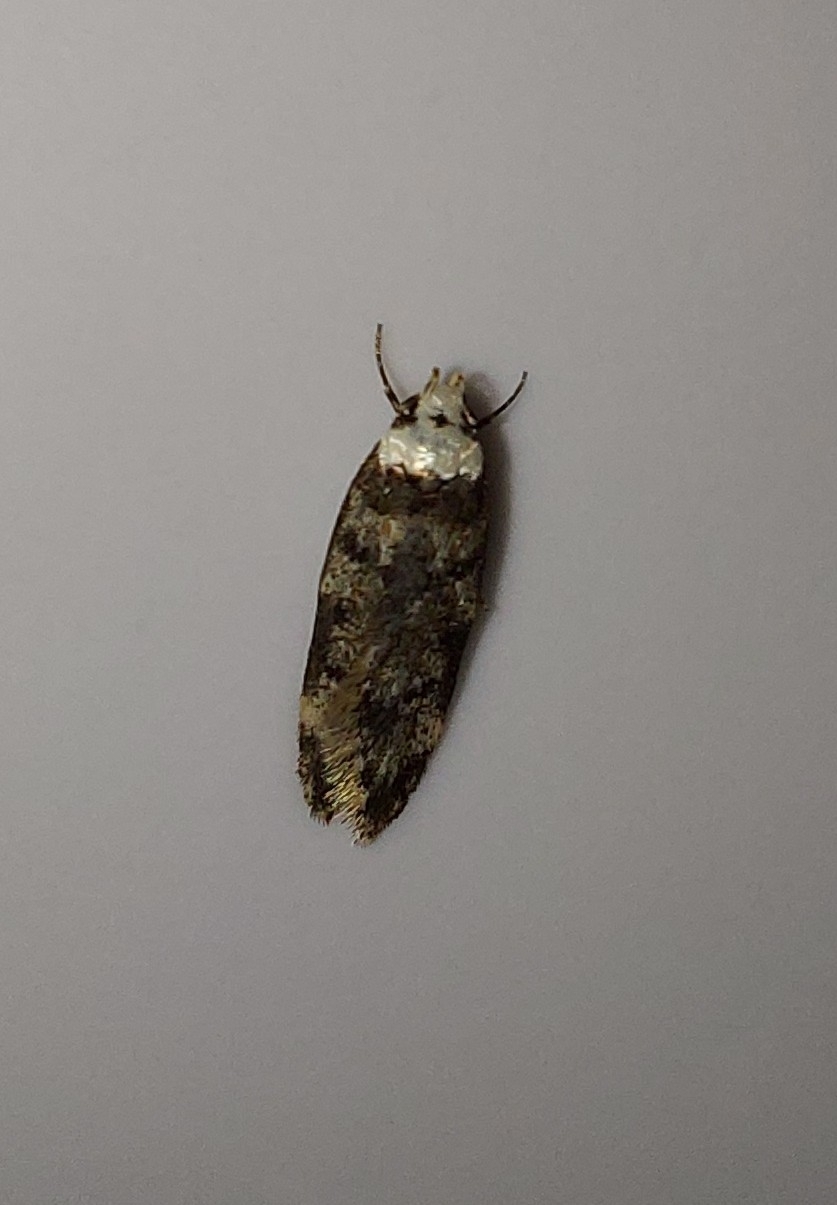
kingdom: Animalia
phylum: Arthropoda
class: Insecta
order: Lepidoptera
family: Oecophoridae
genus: Endrosis
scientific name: Endrosis sarcitrella
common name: White-shouldered house moth
